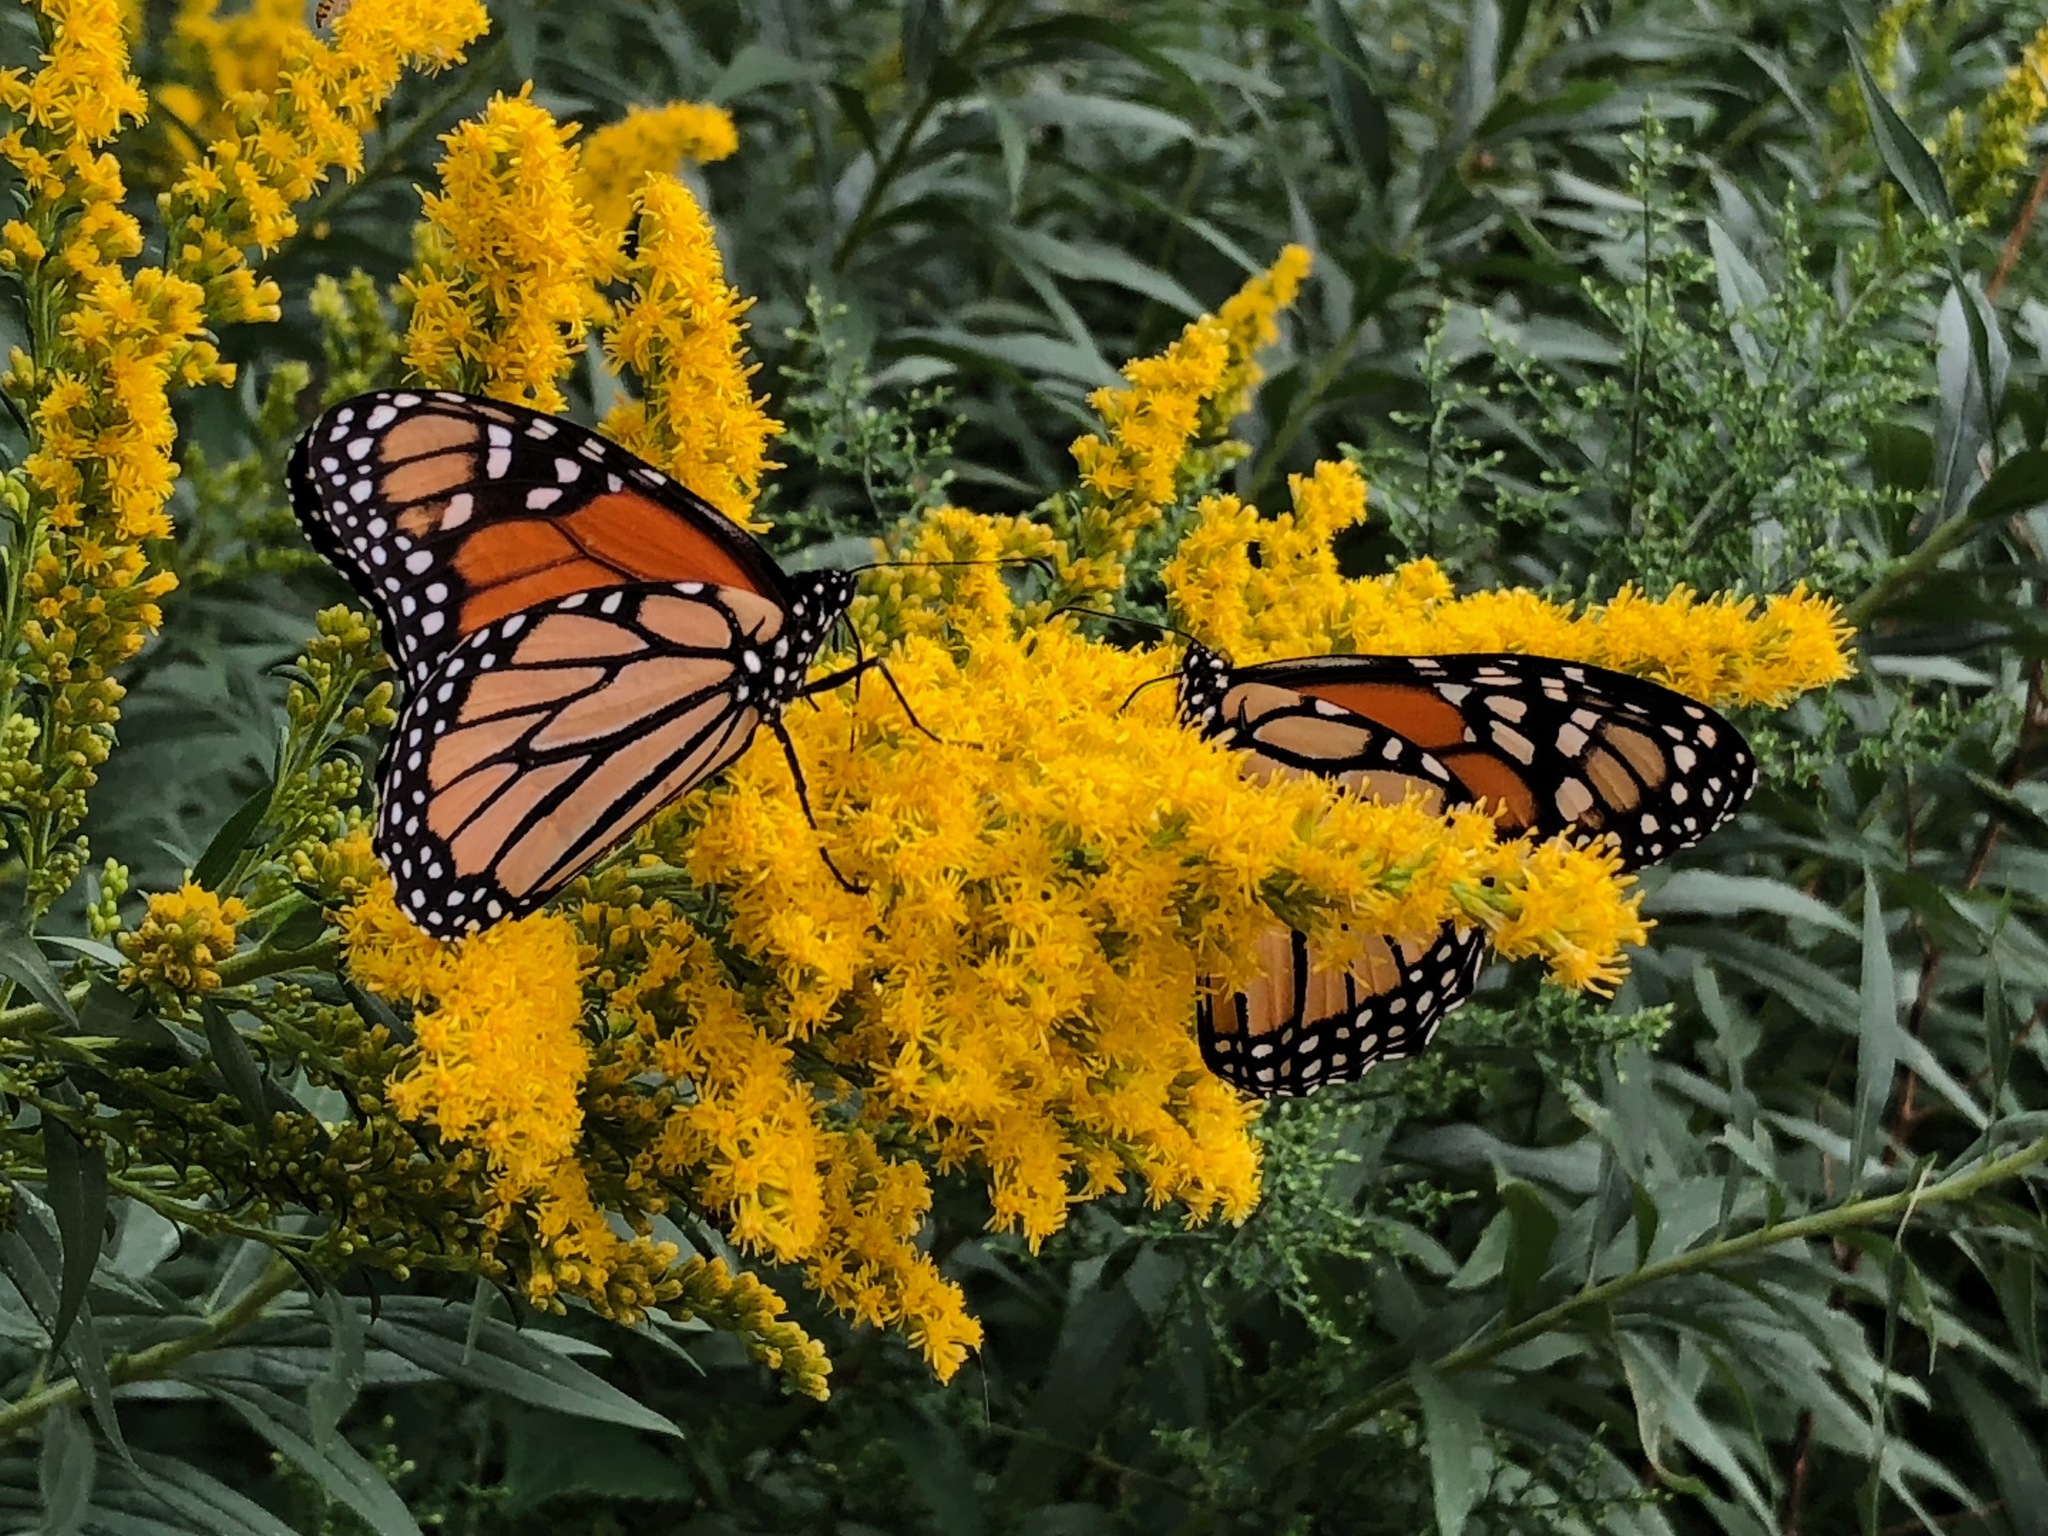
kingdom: Animalia
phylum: Arthropoda
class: Insecta
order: Lepidoptera
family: Nymphalidae
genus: Danaus
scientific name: Danaus plexippus
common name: Monarch
